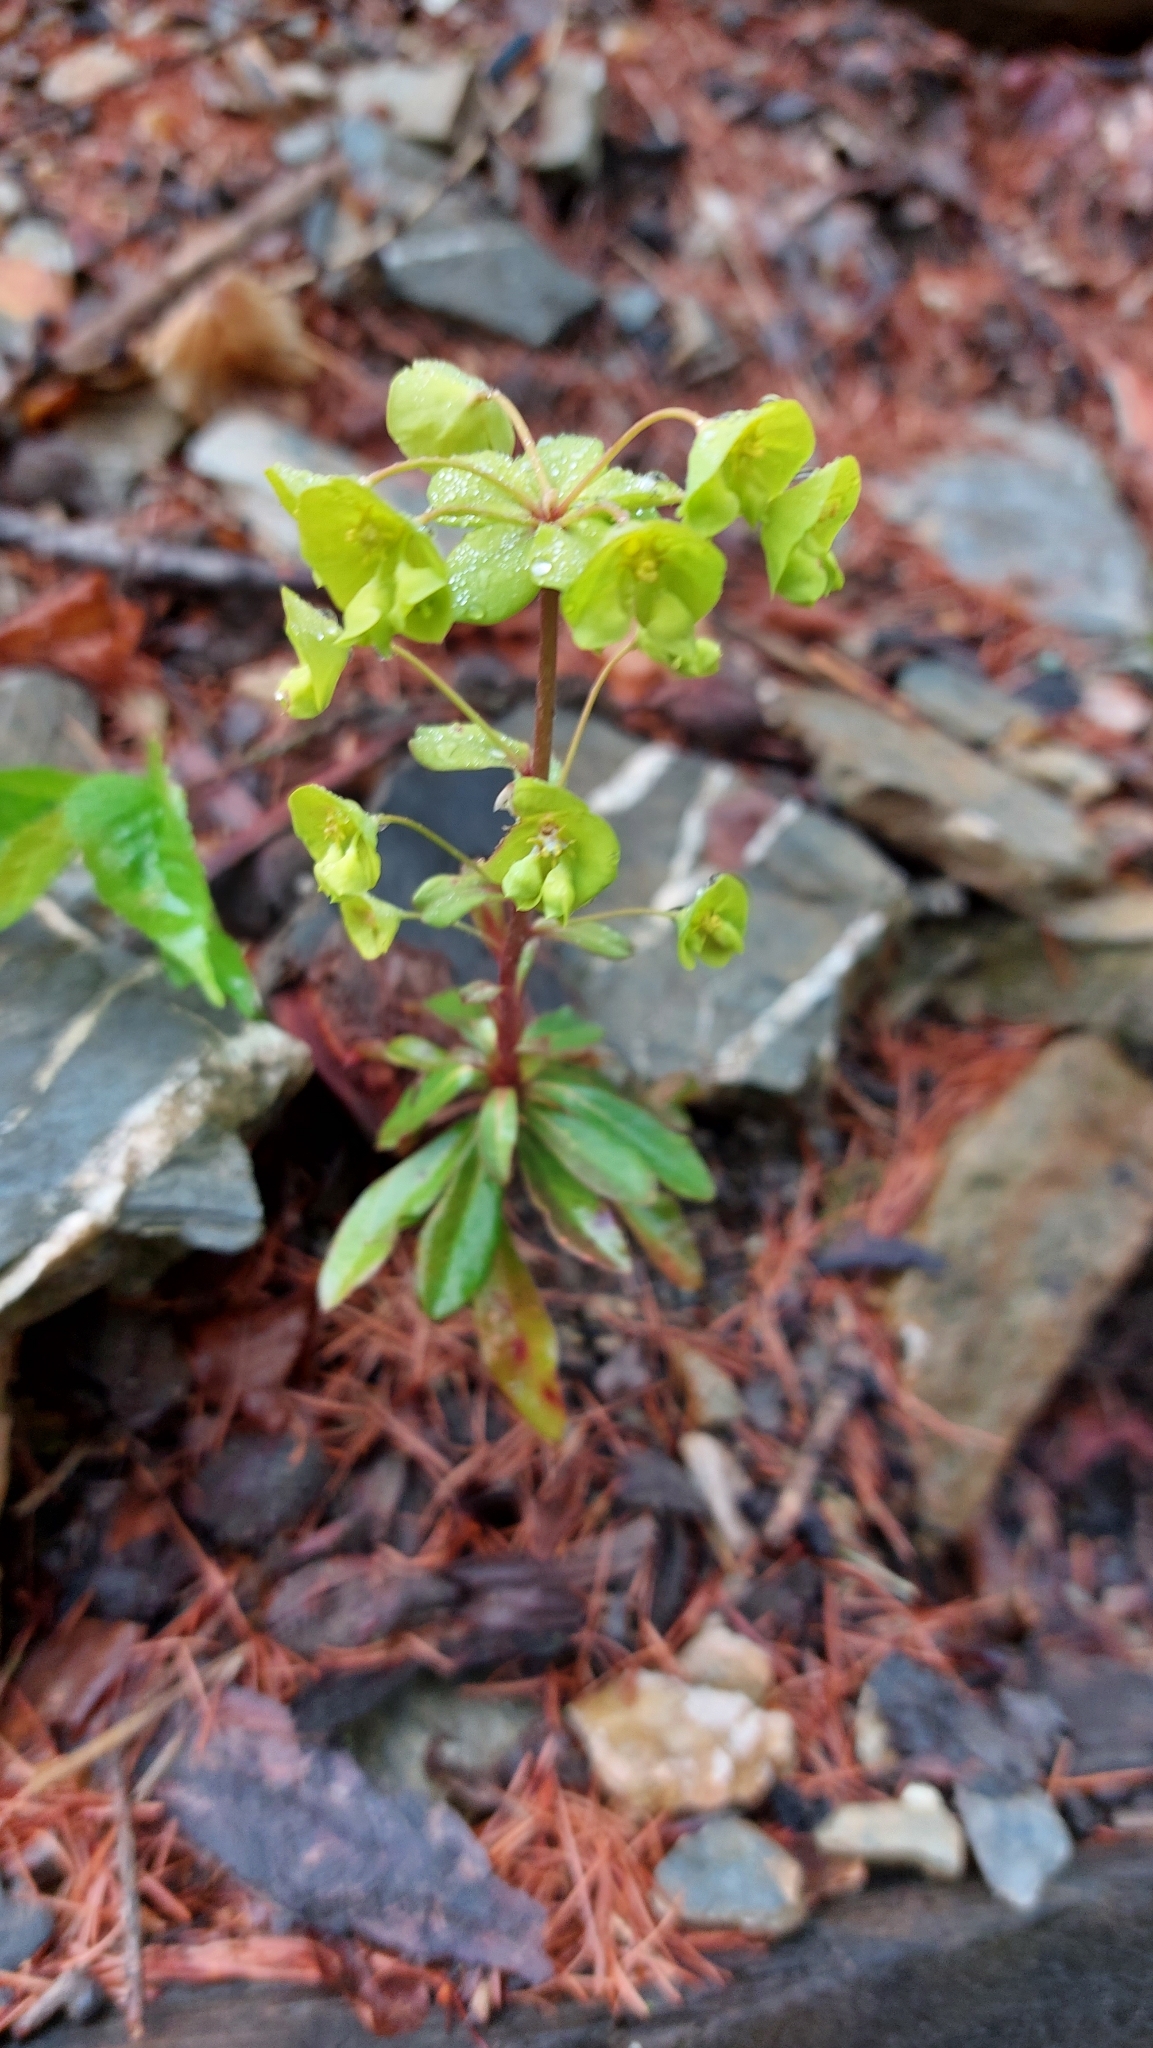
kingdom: Plantae
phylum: Tracheophyta
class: Magnoliopsida
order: Malpighiales
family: Euphorbiaceae
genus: Euphorbia
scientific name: Euphorbia amygdaloides
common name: Wood spurge
